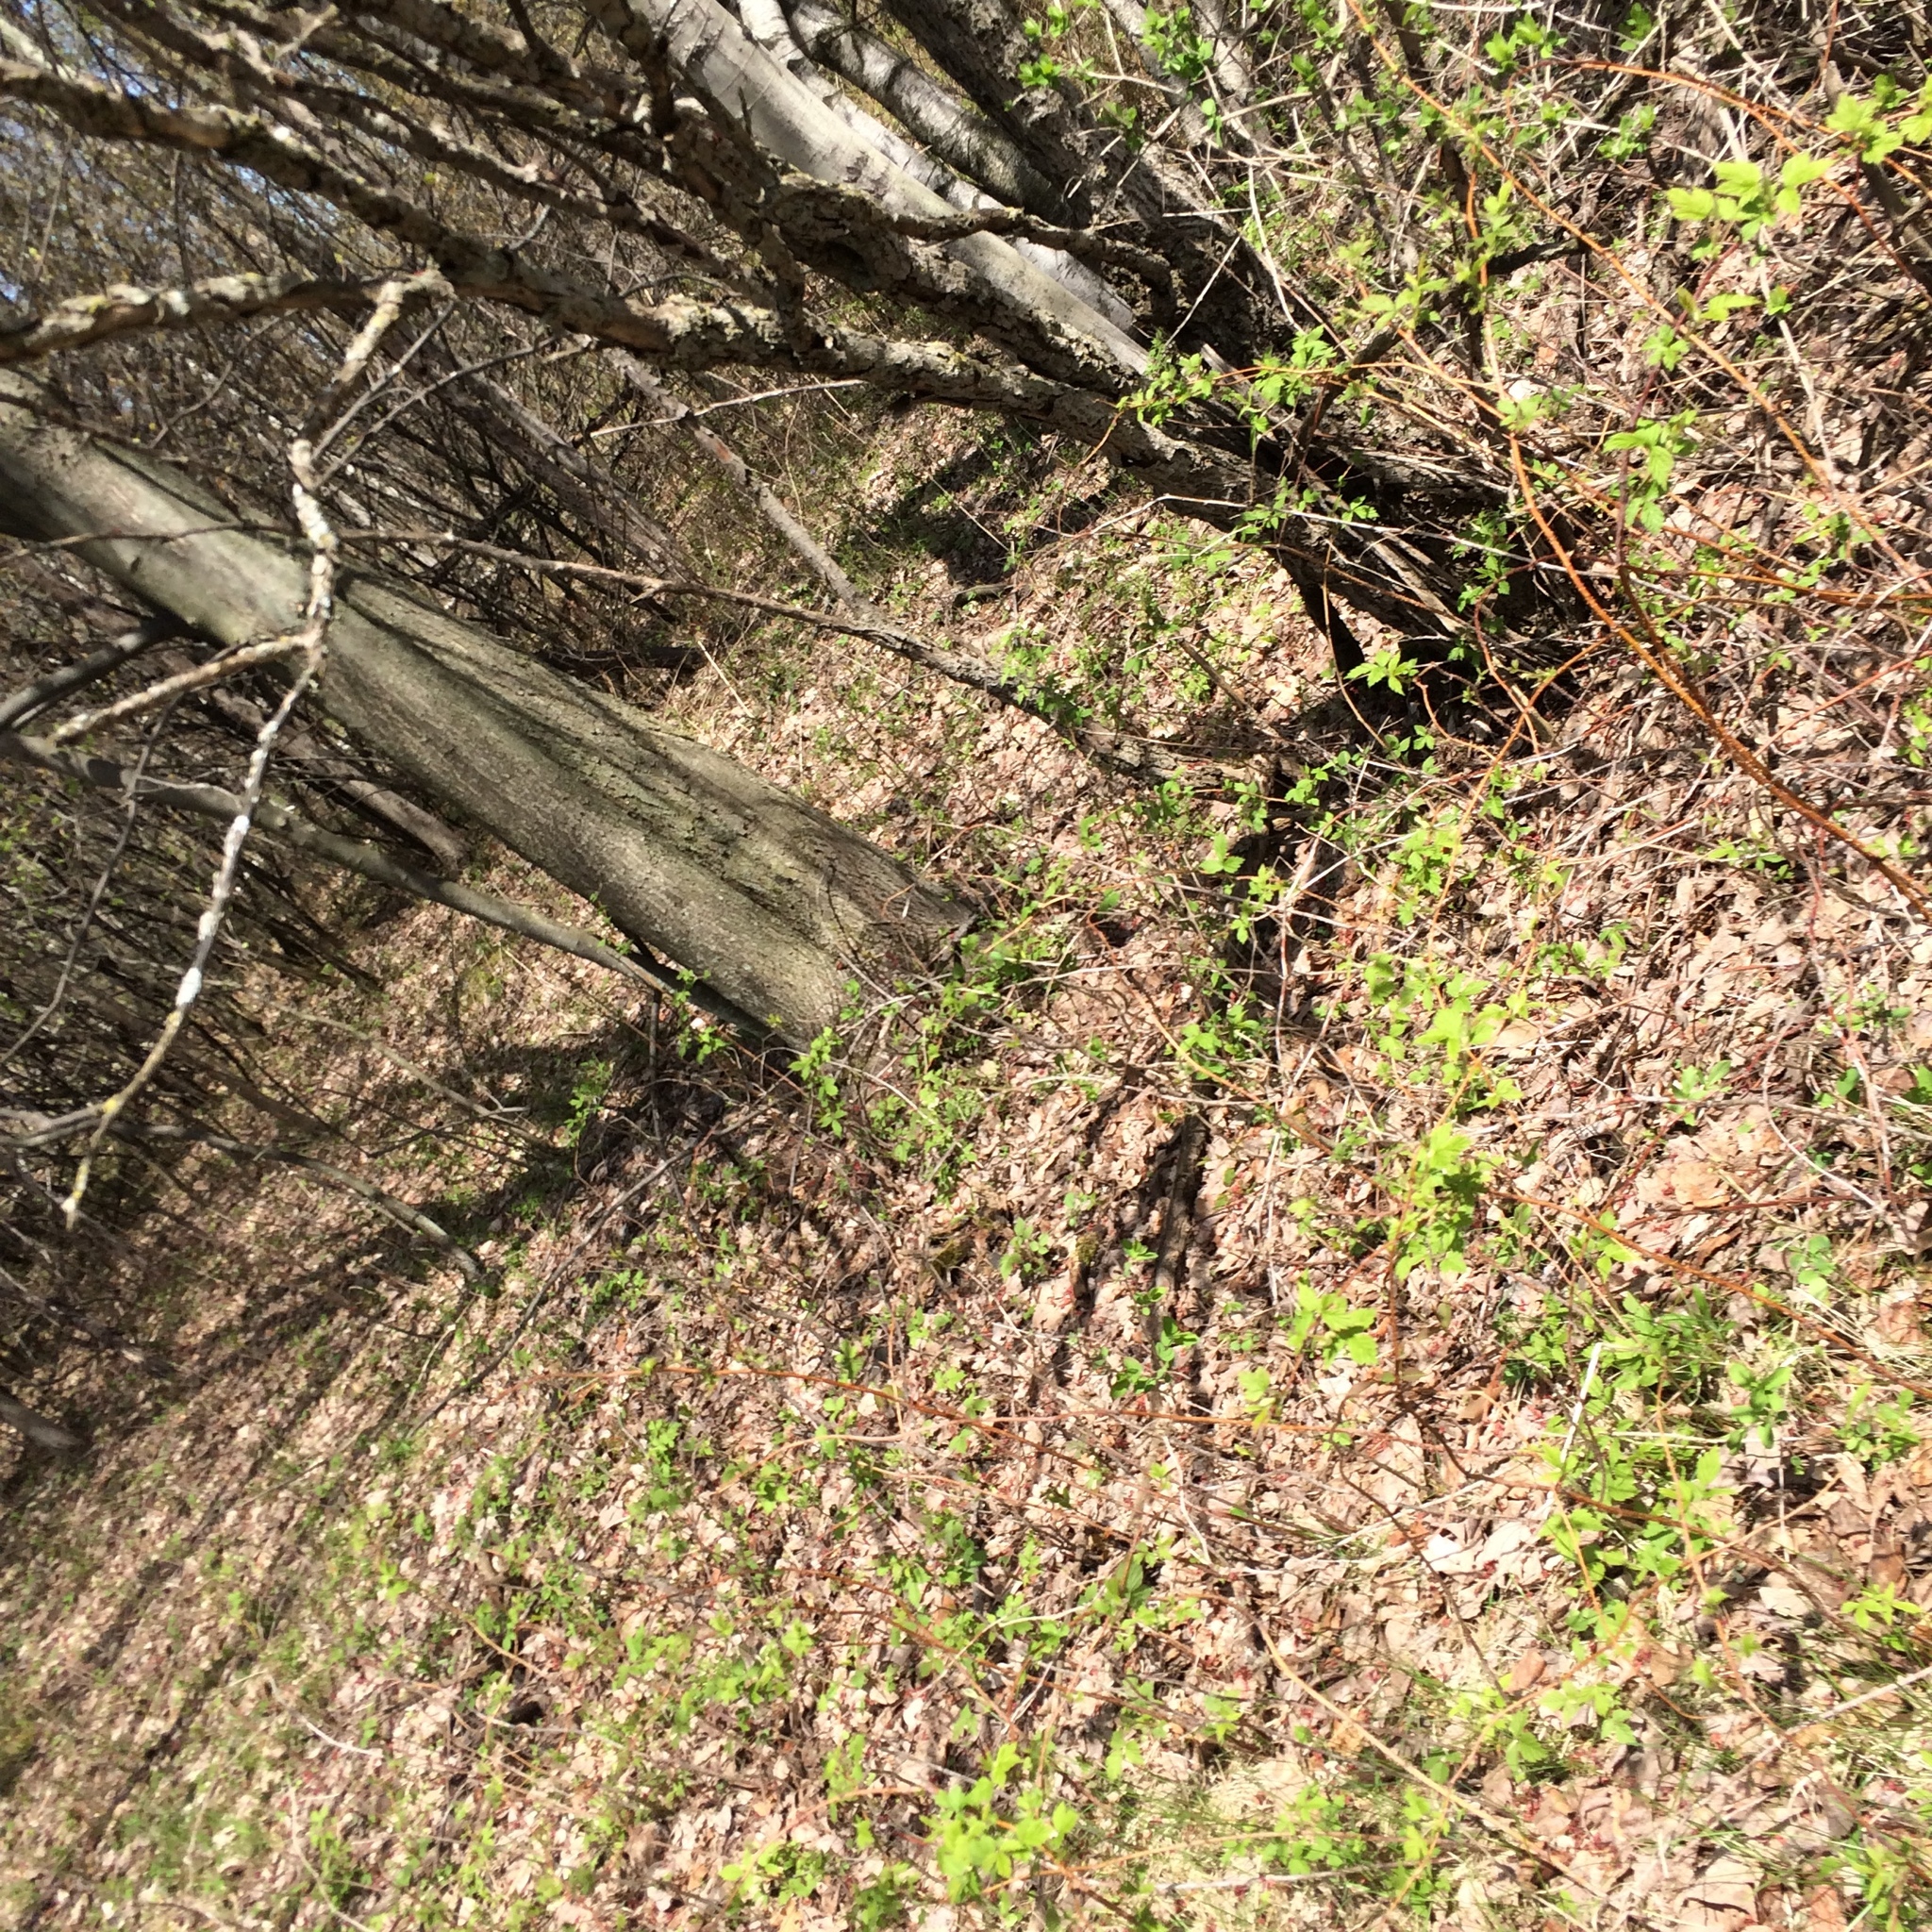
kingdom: Plantae
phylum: Tracheophyta
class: Magnoliopsida
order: Sapindales
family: Sapindaceae
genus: Acer
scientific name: Acer rubrum
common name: Red maple
